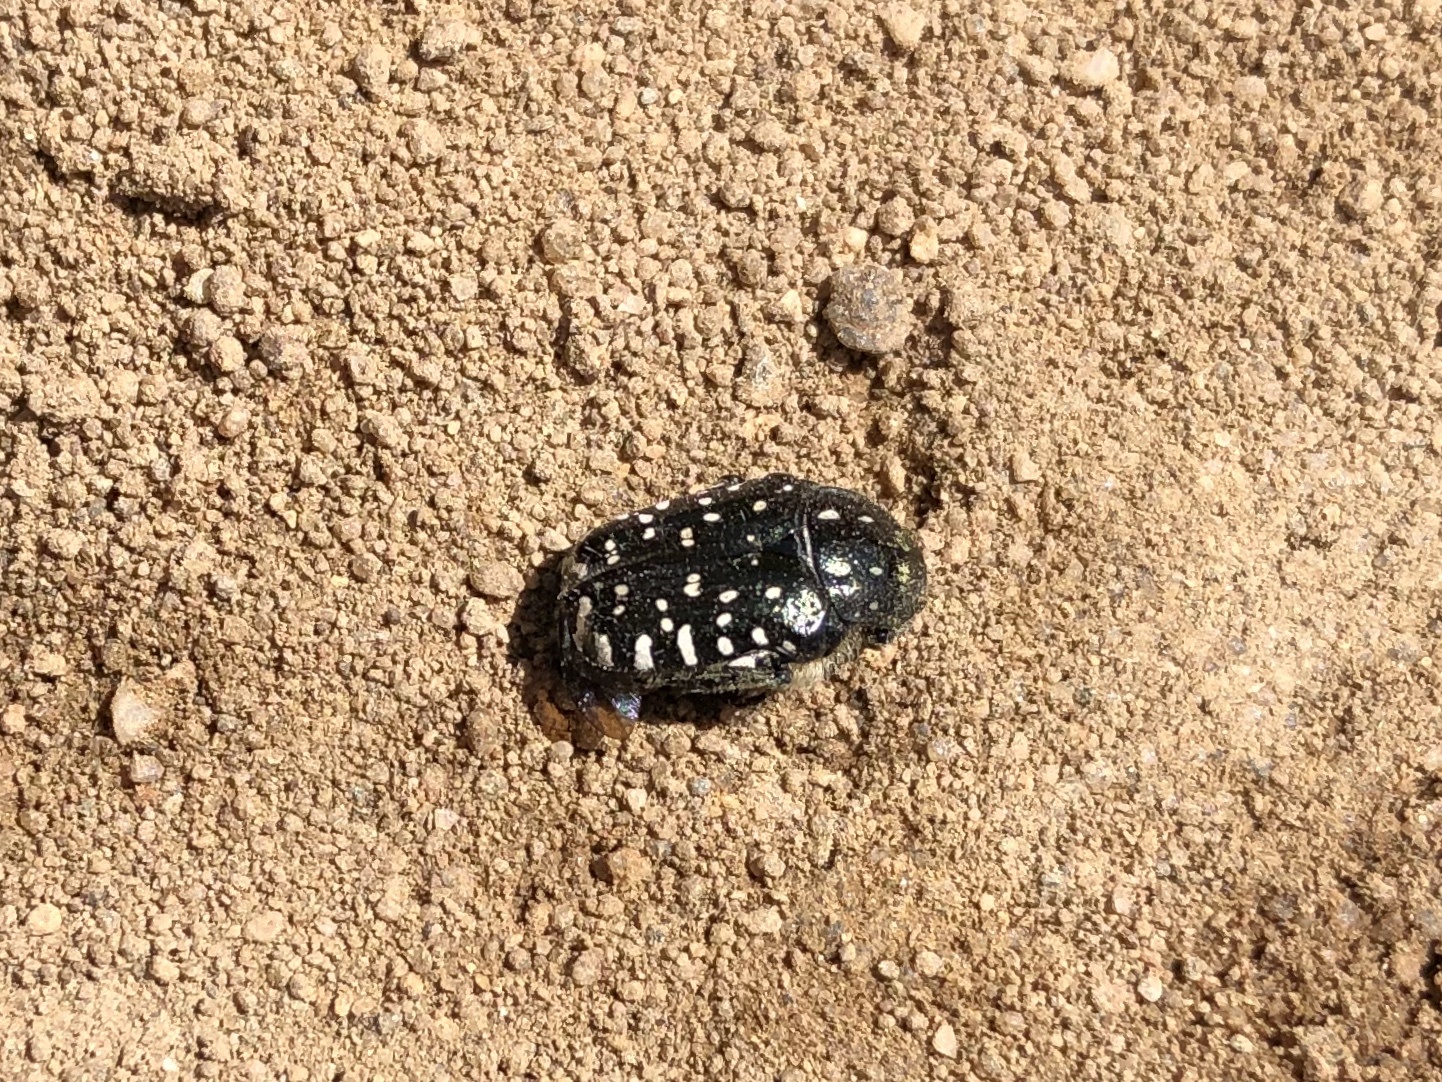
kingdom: Animalia
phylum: Arthropoda
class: Insecta
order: Coleoptera
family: Scarabaeidae
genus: Oxythyrea
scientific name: Oxythyrea funesta
